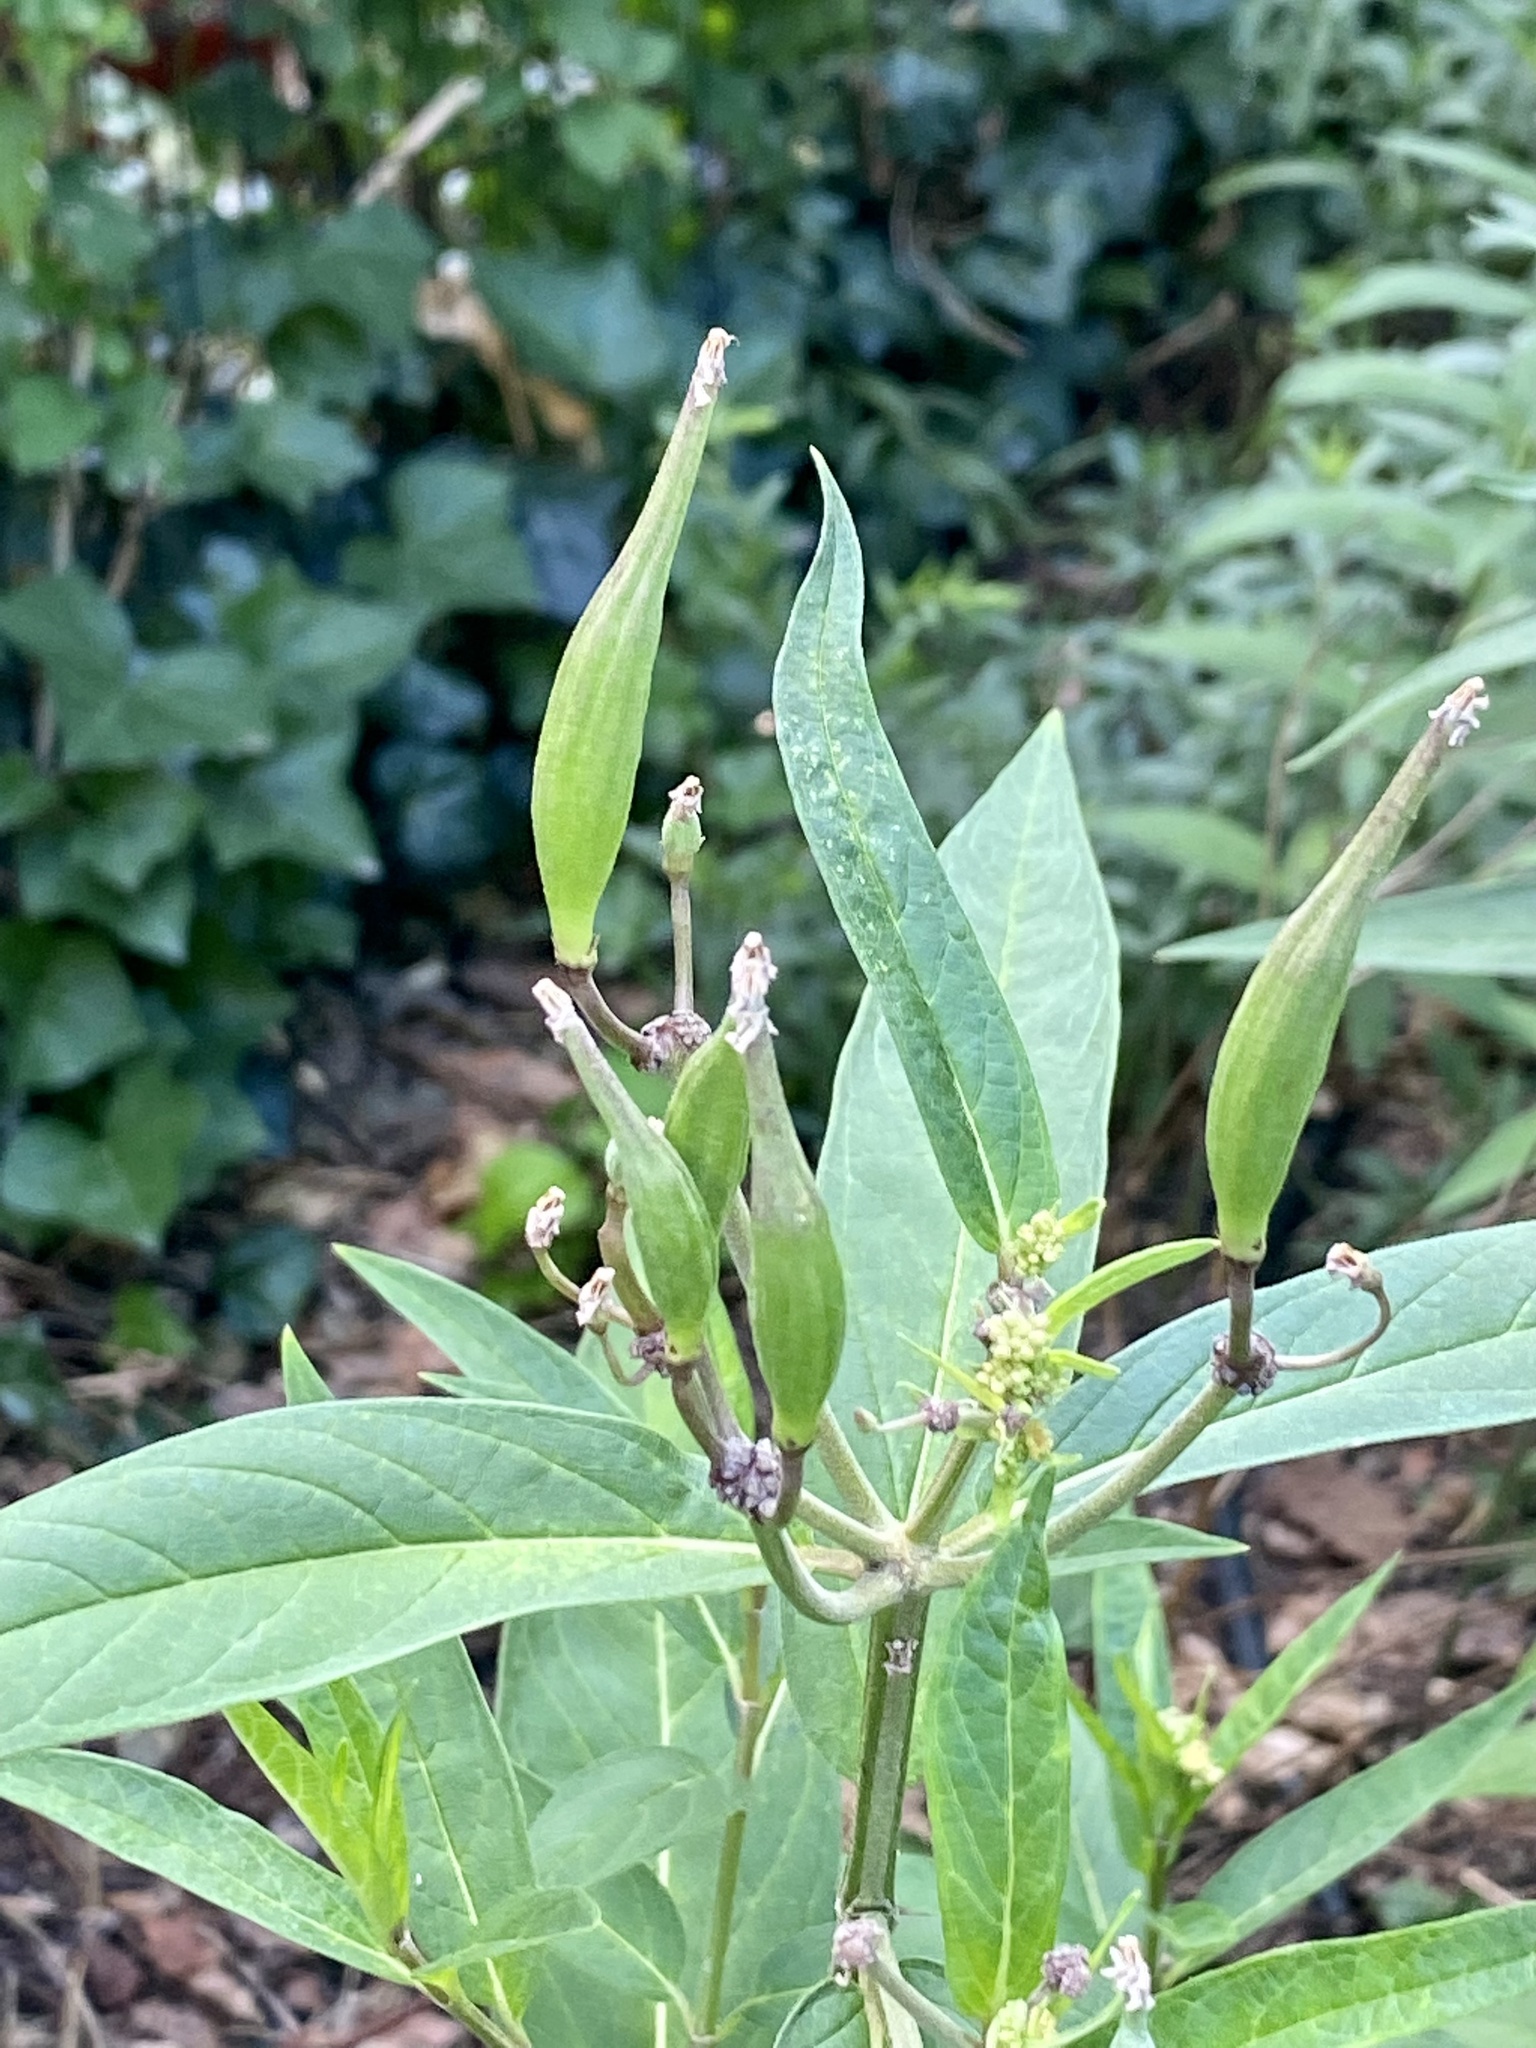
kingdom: Plantae
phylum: Tracheophyta
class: Magnoliopsida
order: Gentianales
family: Apocynaceae
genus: Asclepias
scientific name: Asclepias incarnata
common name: Swamp milkweed
